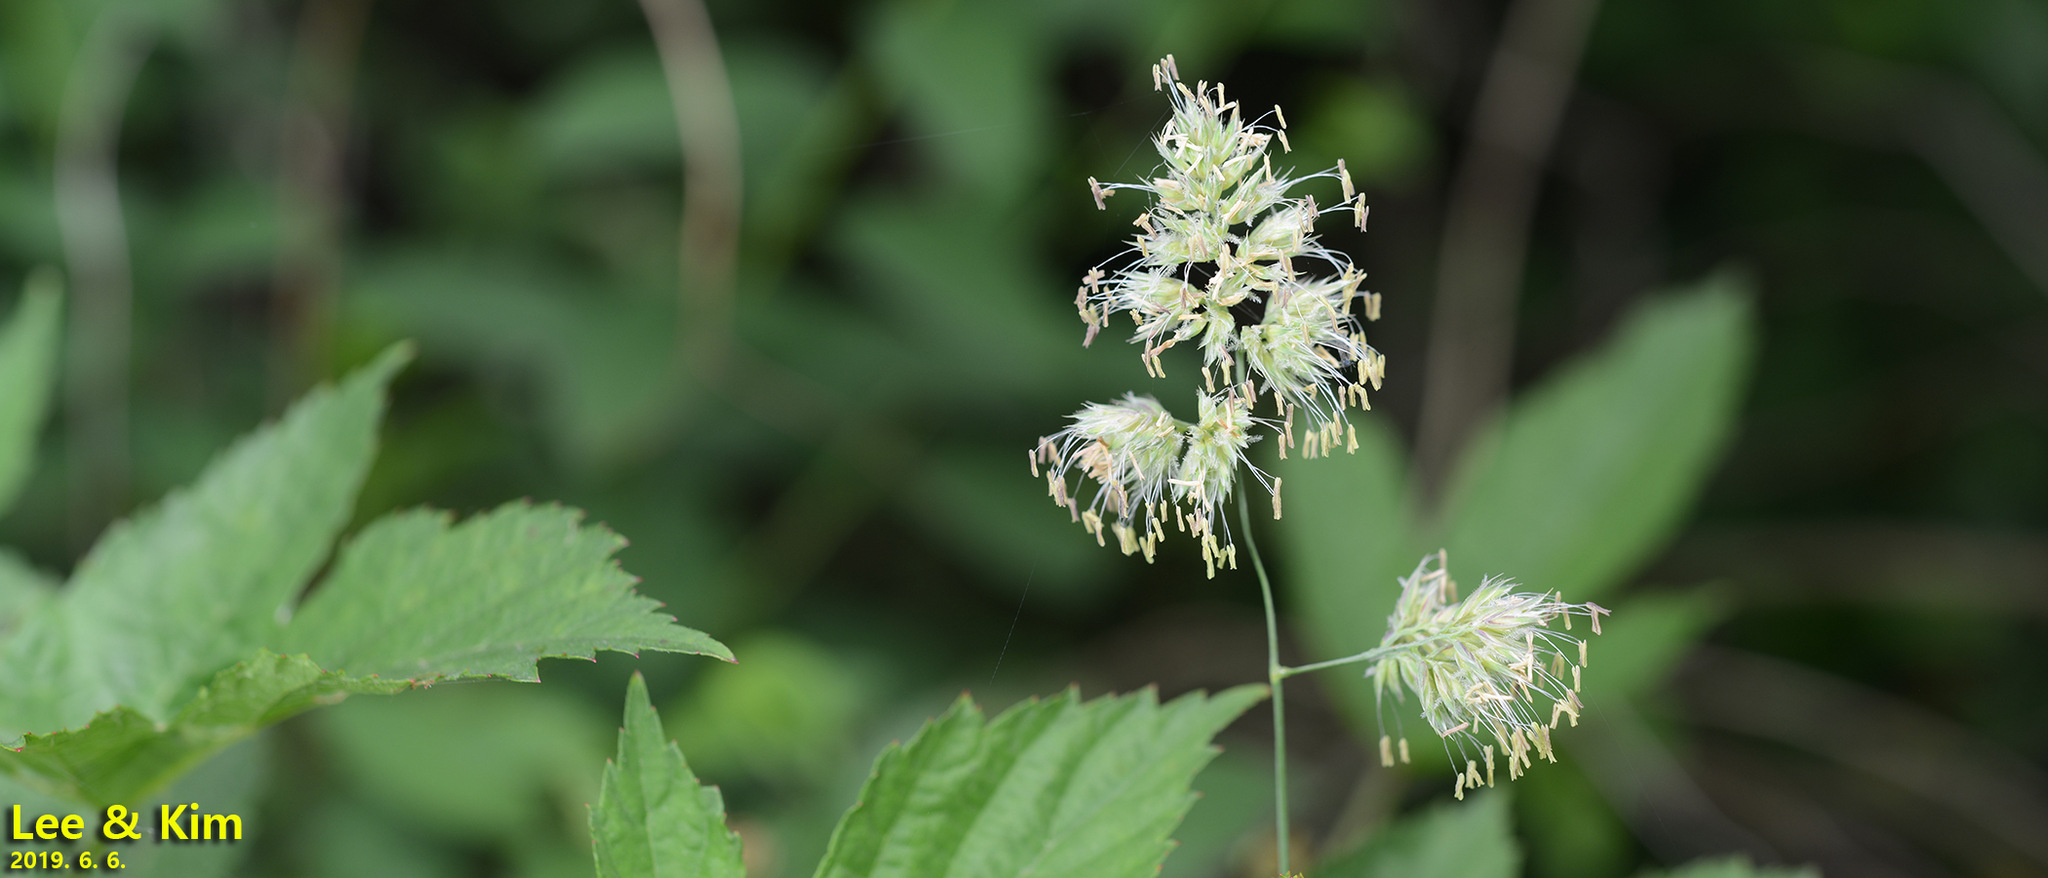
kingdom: Plantae
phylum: Tracheophyta
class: Liliopsida
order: Poales
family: Poaceae
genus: Dactylis
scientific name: Dactylis glomerata
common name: Orchardgrass
